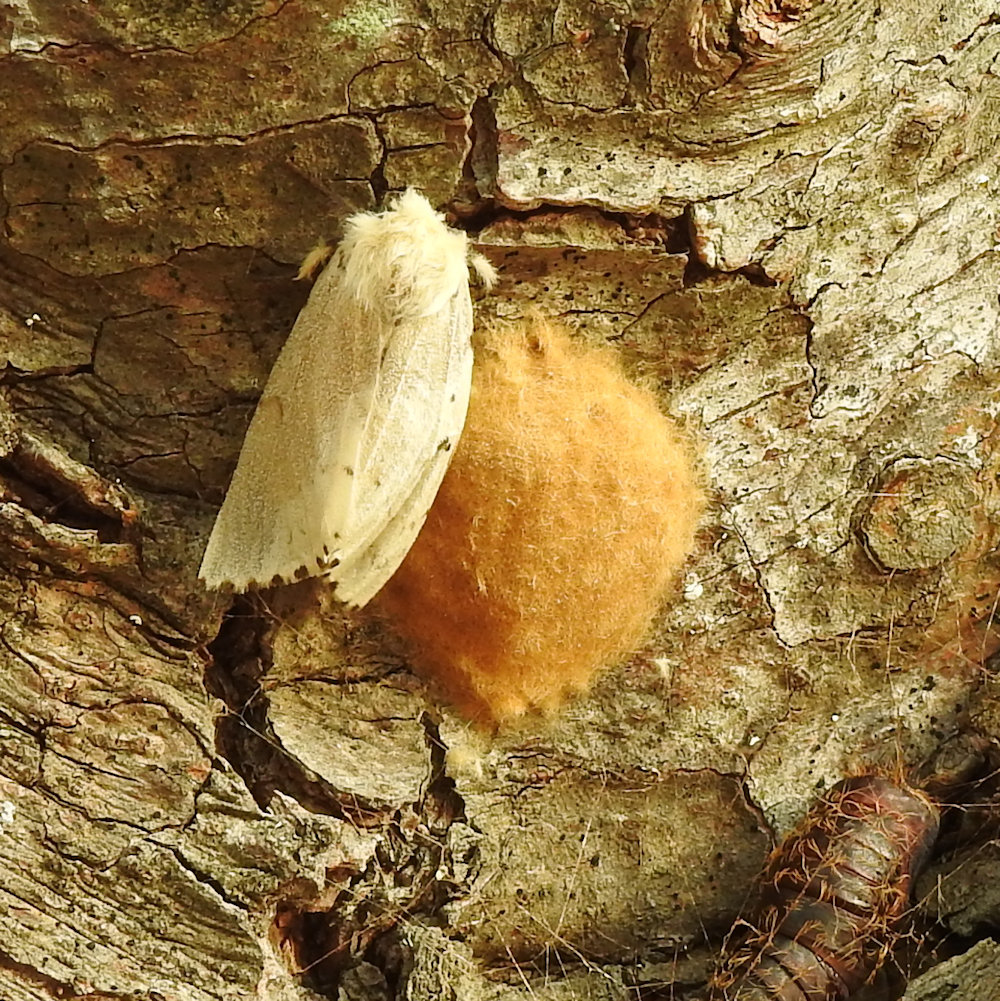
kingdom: Animalia
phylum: Arthropoda
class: Insecta
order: Lepidoptera
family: Erebidae
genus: Lymantria
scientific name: Lymantria dispar
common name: Gypsy moth
